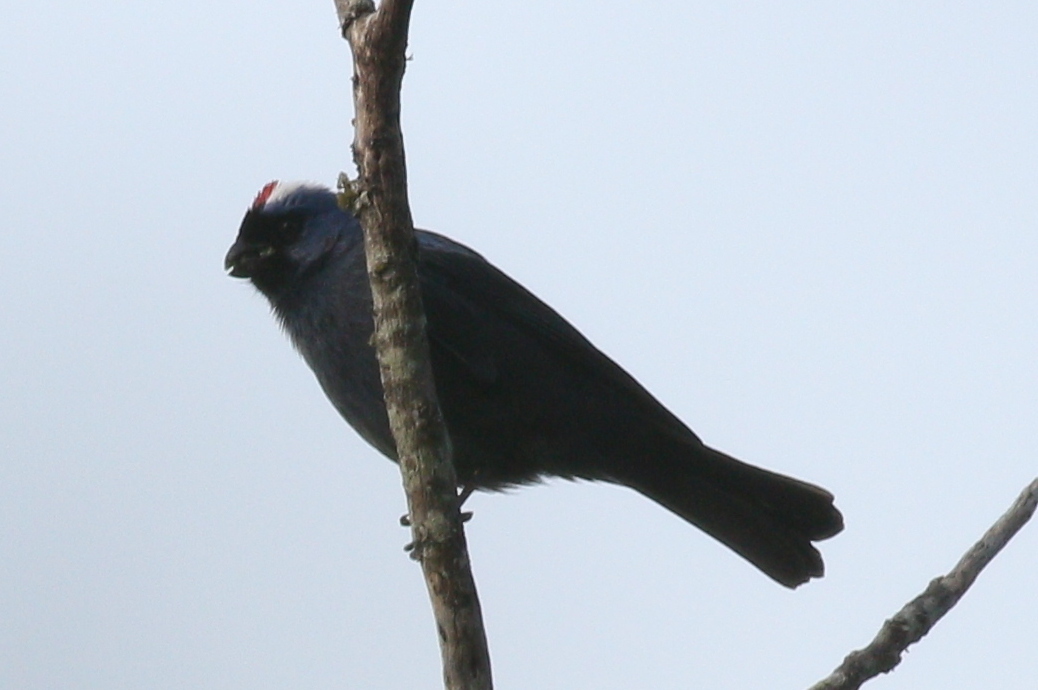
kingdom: Animalia
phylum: Chordata
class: Aves
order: Passeriformes
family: Thraupidae
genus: Stephanophorus
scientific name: Stephanophorus diadematus
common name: Diademed tanager
